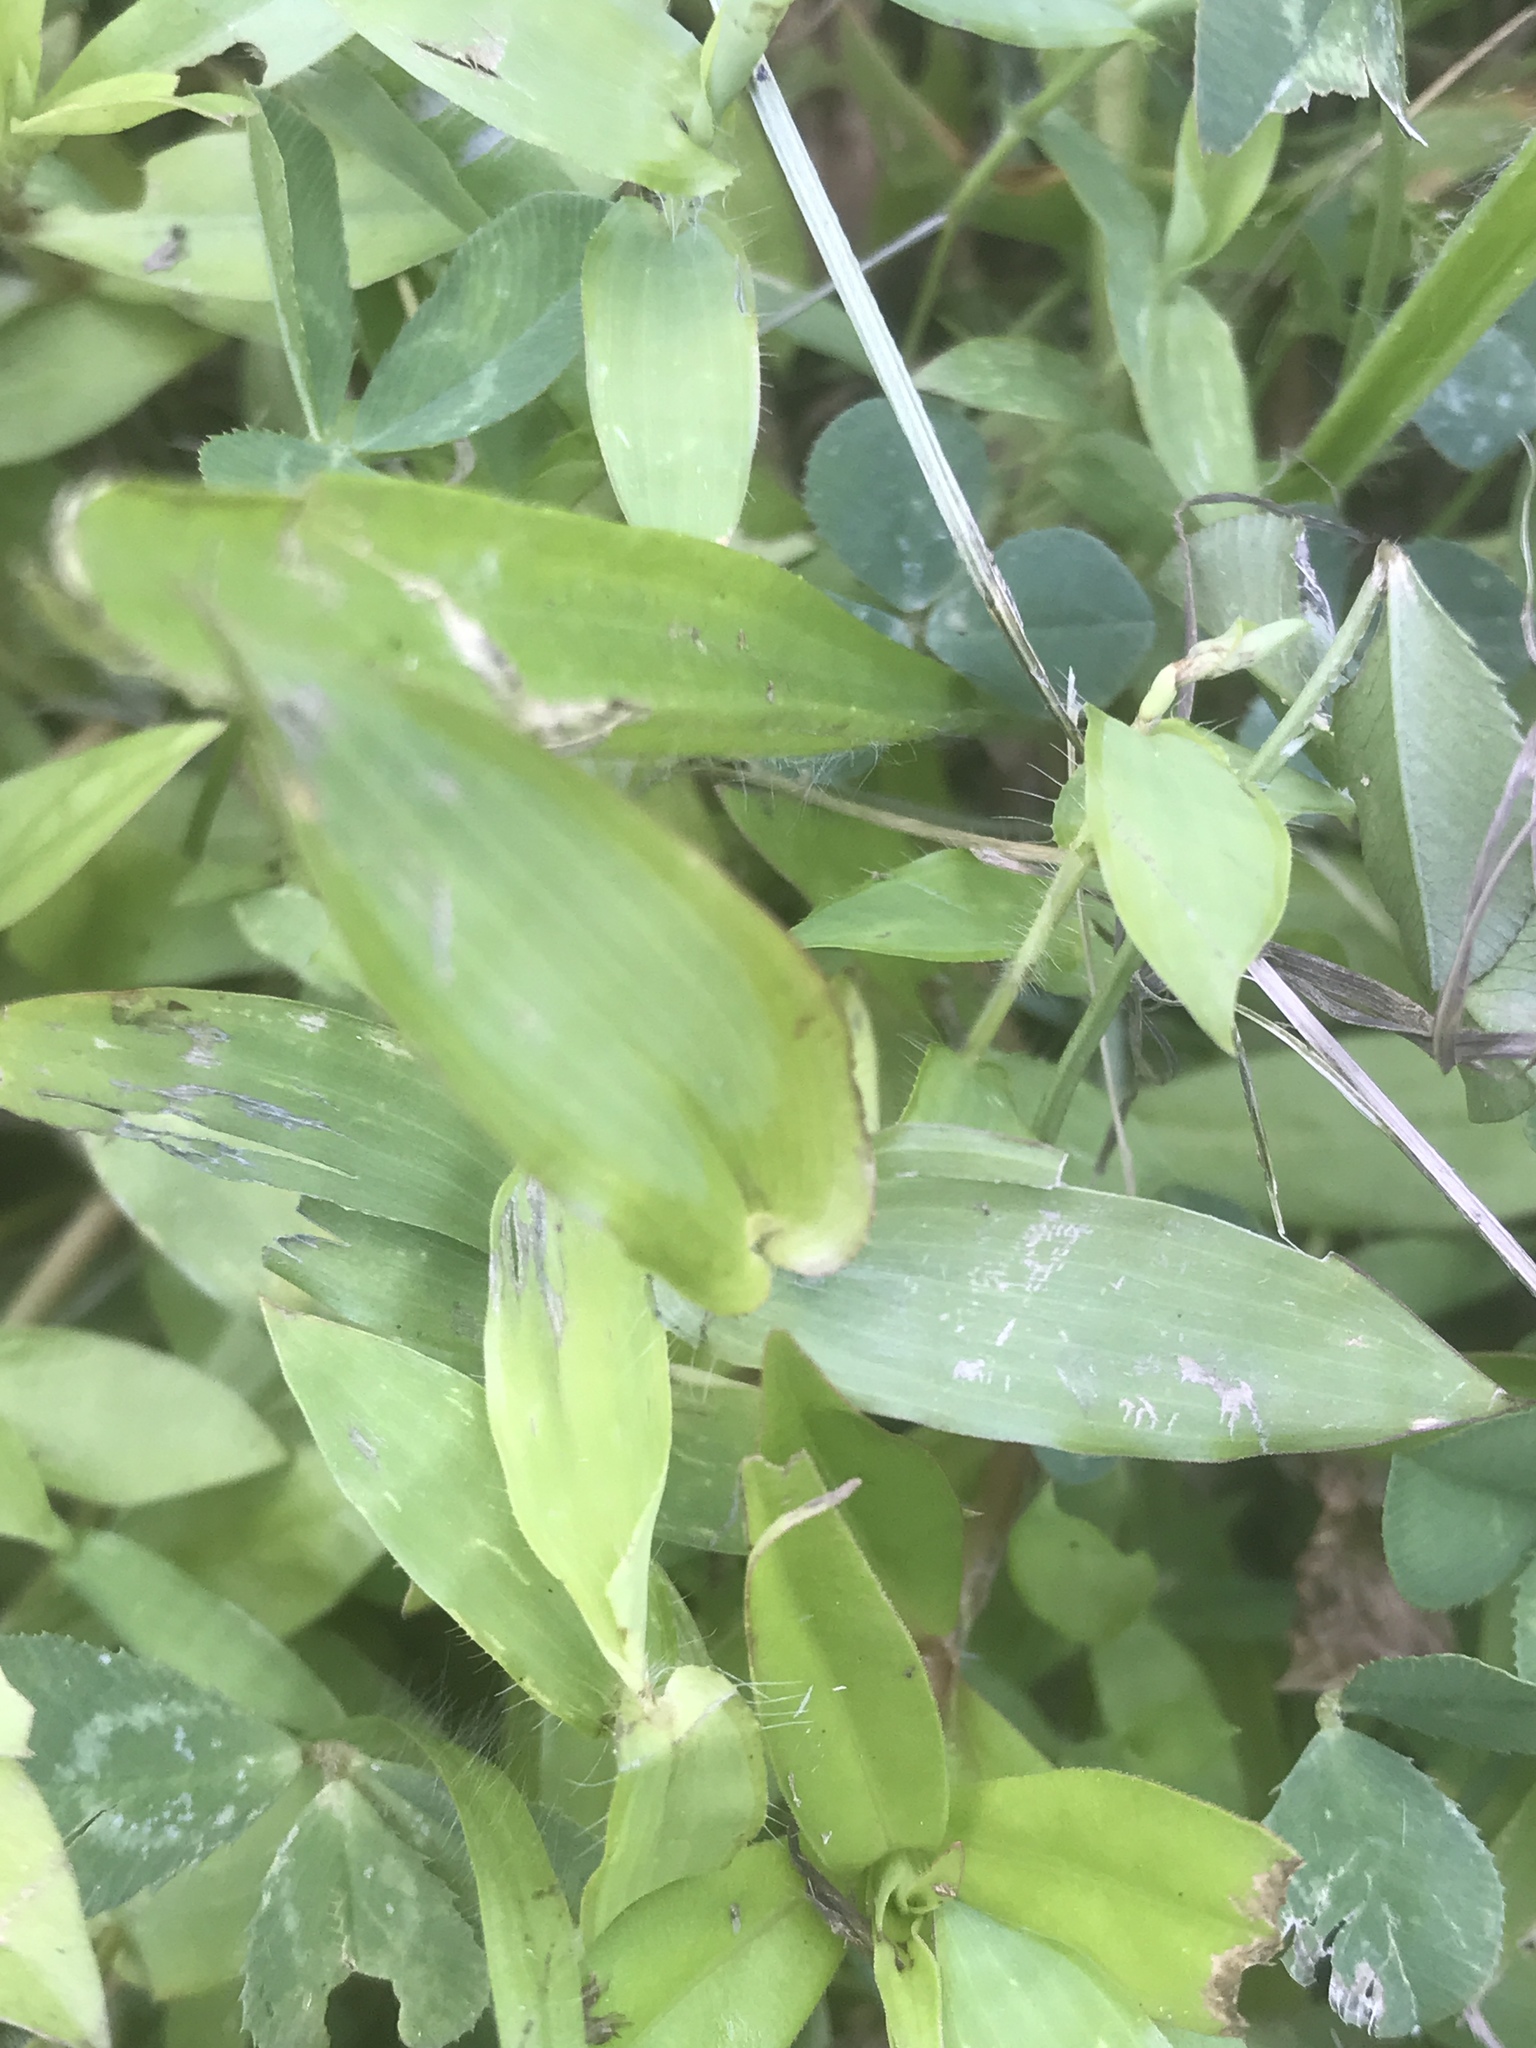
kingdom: Plantae
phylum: Tracheophyta
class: Liliopsida
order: Poales
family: Poaceae
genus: Arthraxon
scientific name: Arthraxon hispidus
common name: Small carpgrass
